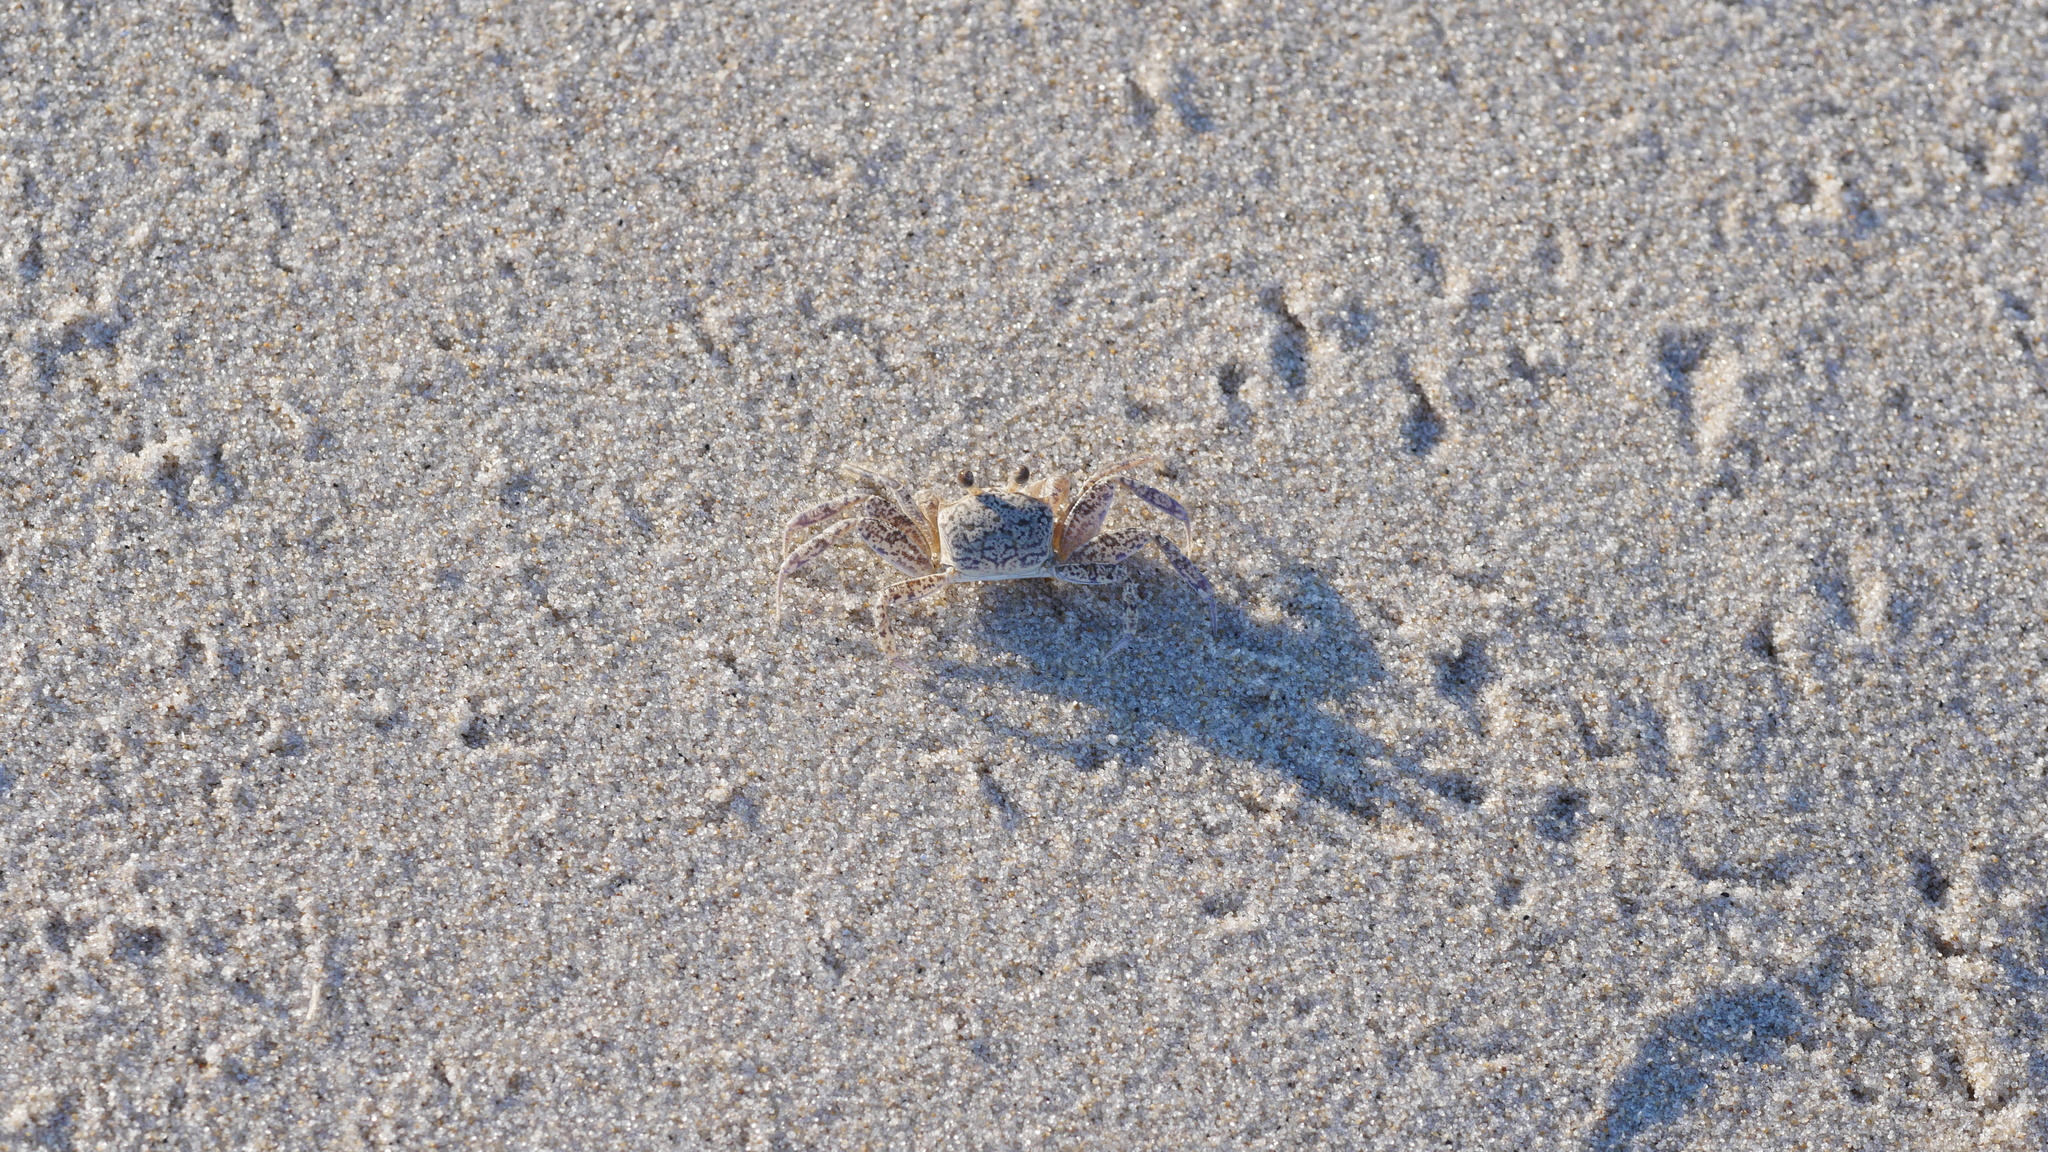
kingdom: Animalia
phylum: Arthropoda
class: Malacostraca
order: Decapoda
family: Ocypodidae
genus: Ocypode
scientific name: Ocypode quadrata
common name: Ghost crab
